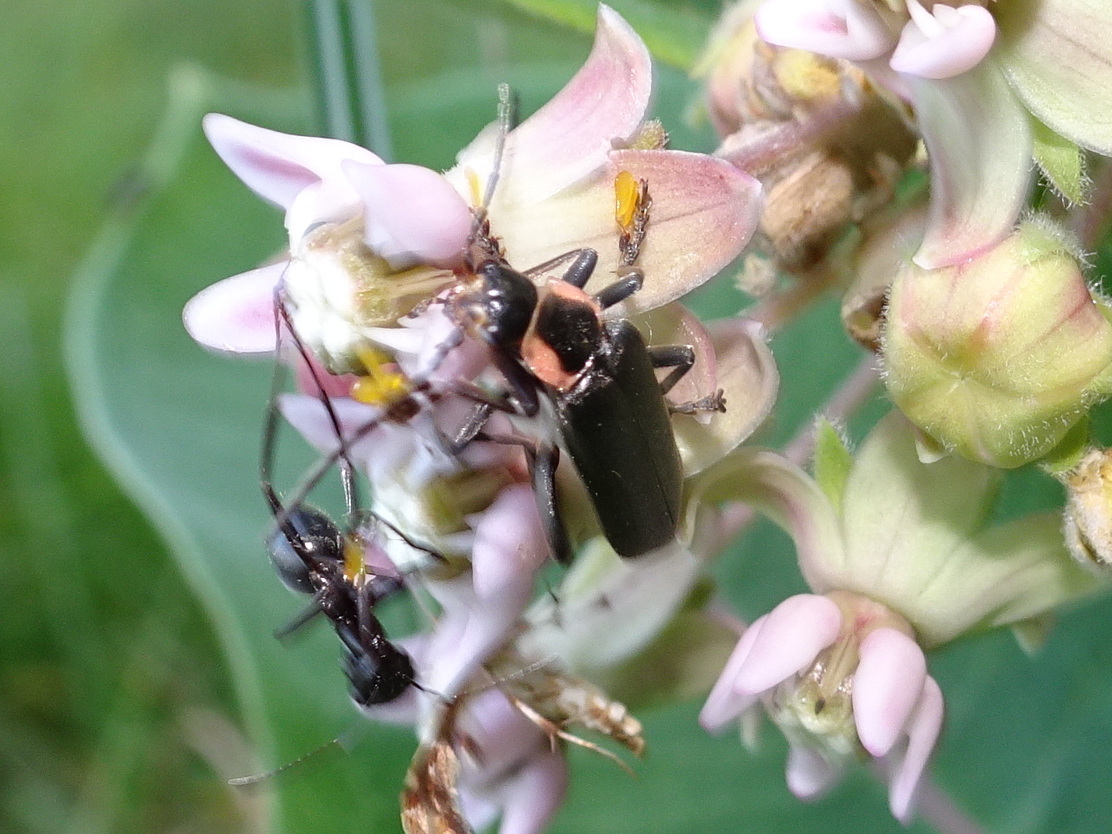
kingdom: Animalia
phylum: Arthropoda
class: Insecta
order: Coleoptera
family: Cantharidae
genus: Rhaxonycha
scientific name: Rhaxonycha carolina
